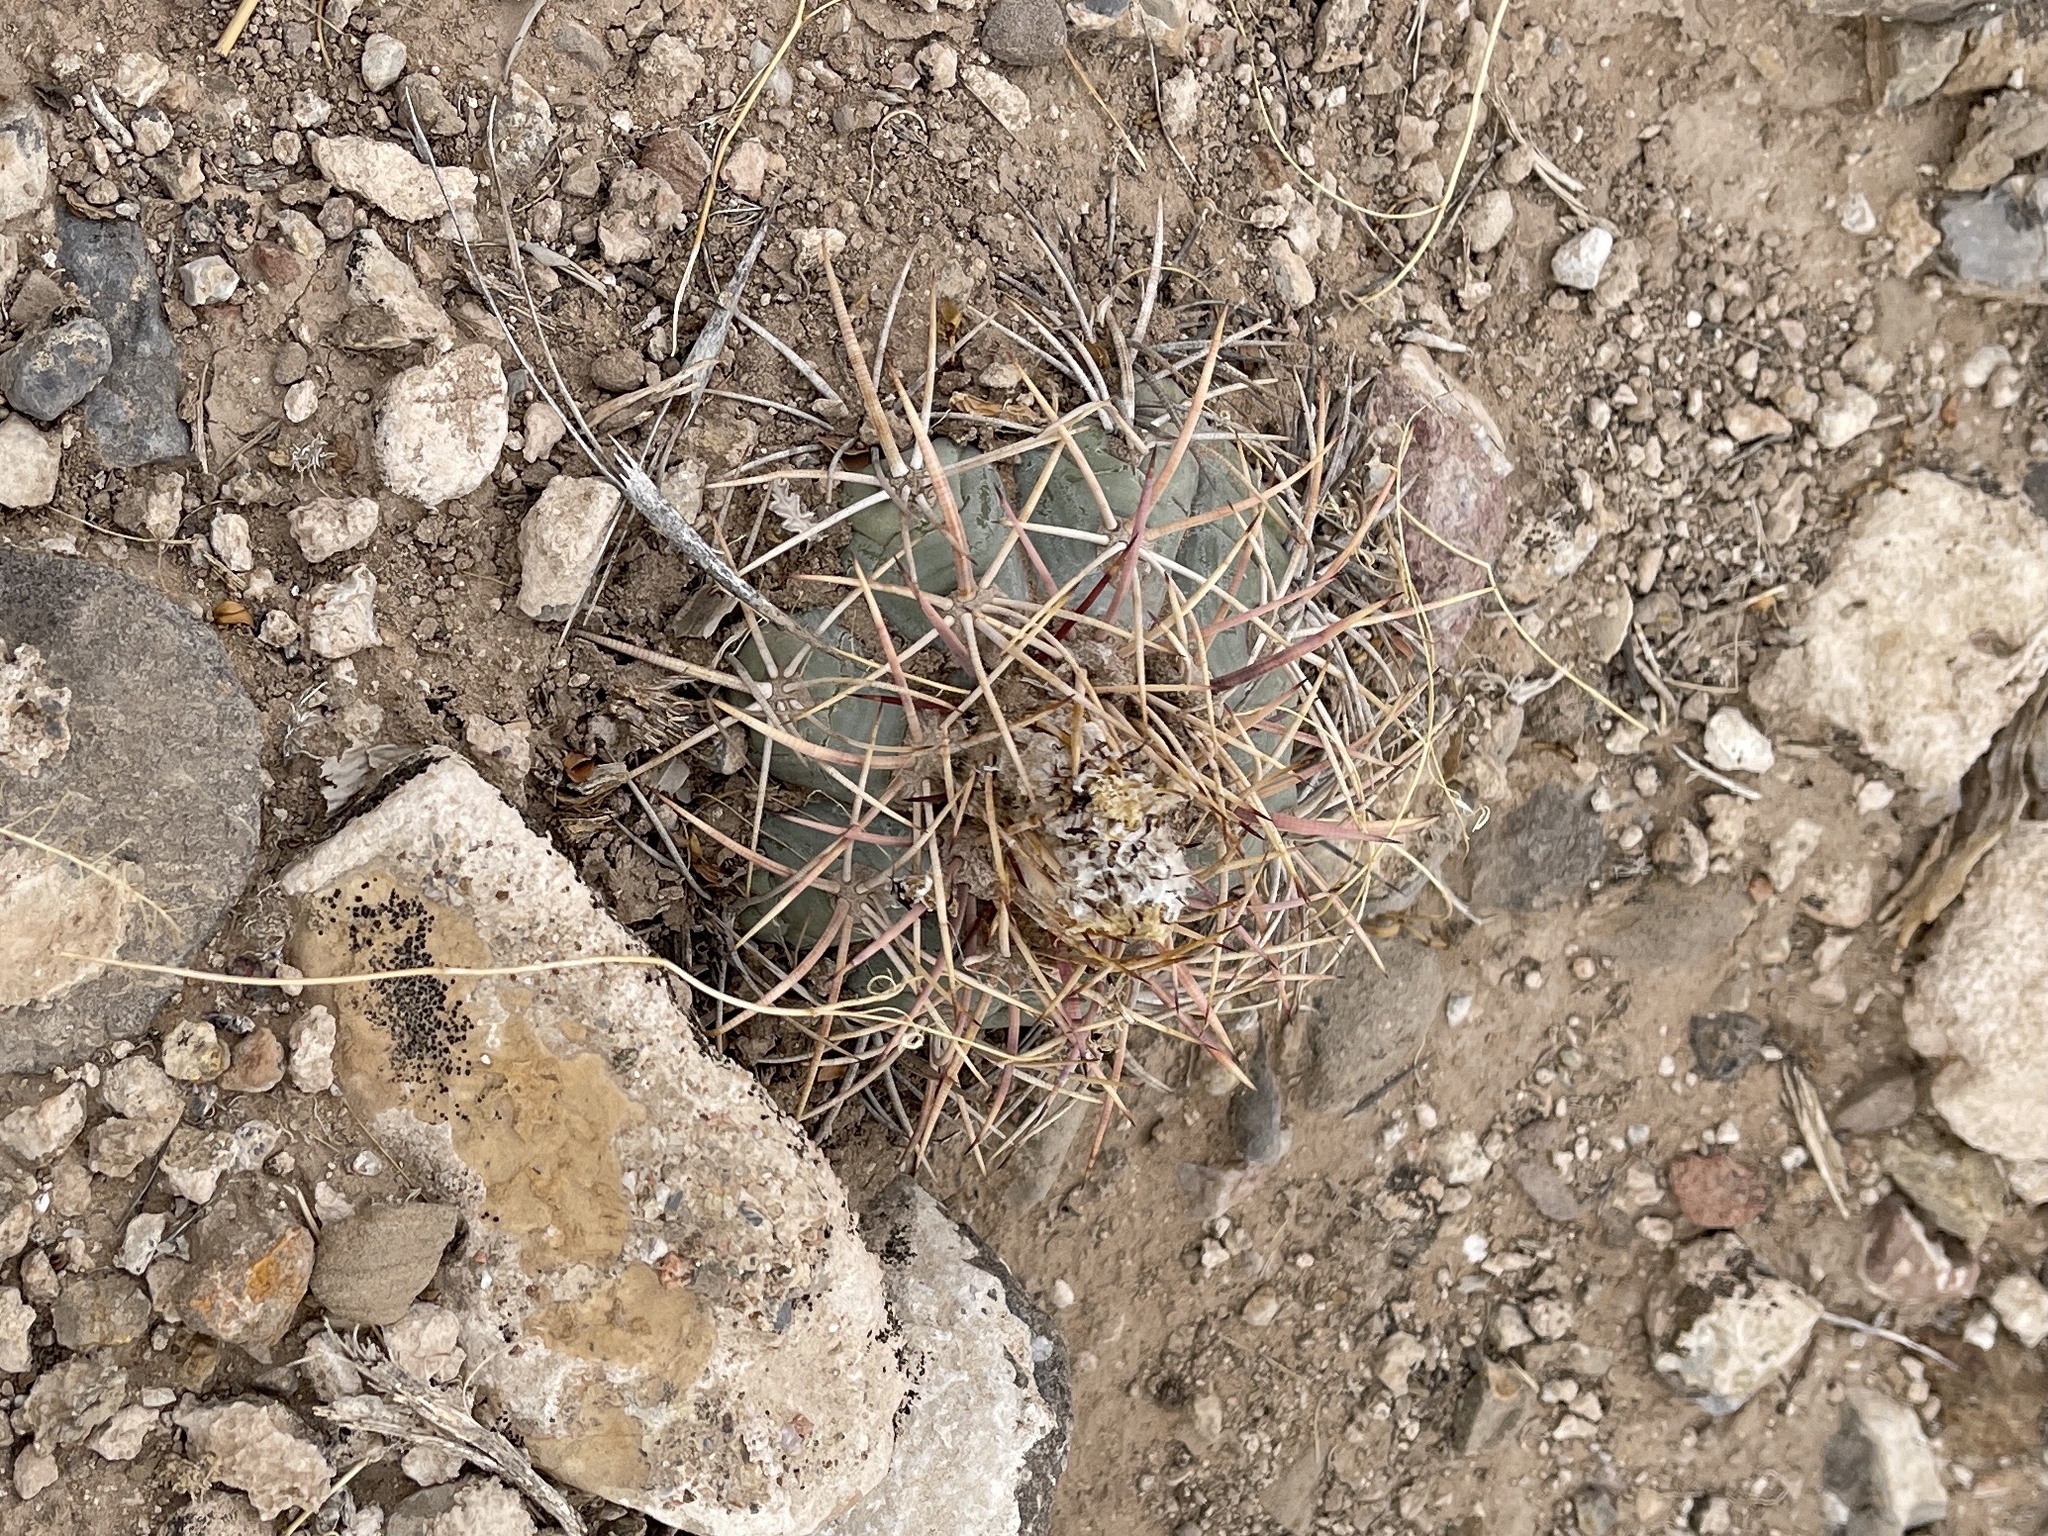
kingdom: Plantae
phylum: Tracheophyta
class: Magnoliopsida
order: Caryophyllales
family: Cactaceae
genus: Echinocactus
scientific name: Echinocactus horizonthalonius
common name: Devilshead
